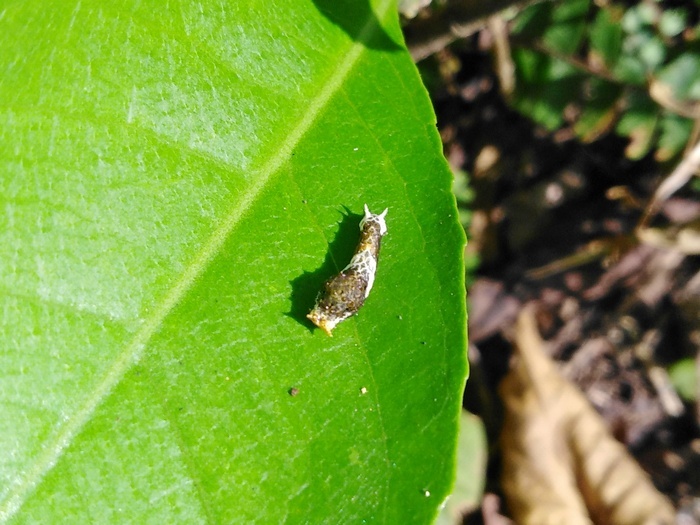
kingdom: Animalia
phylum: Arthropoda
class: Insecta
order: Lepidoptera
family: Papilionidae
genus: Papilio
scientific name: Papilio demoleus
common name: Lime butterfly
